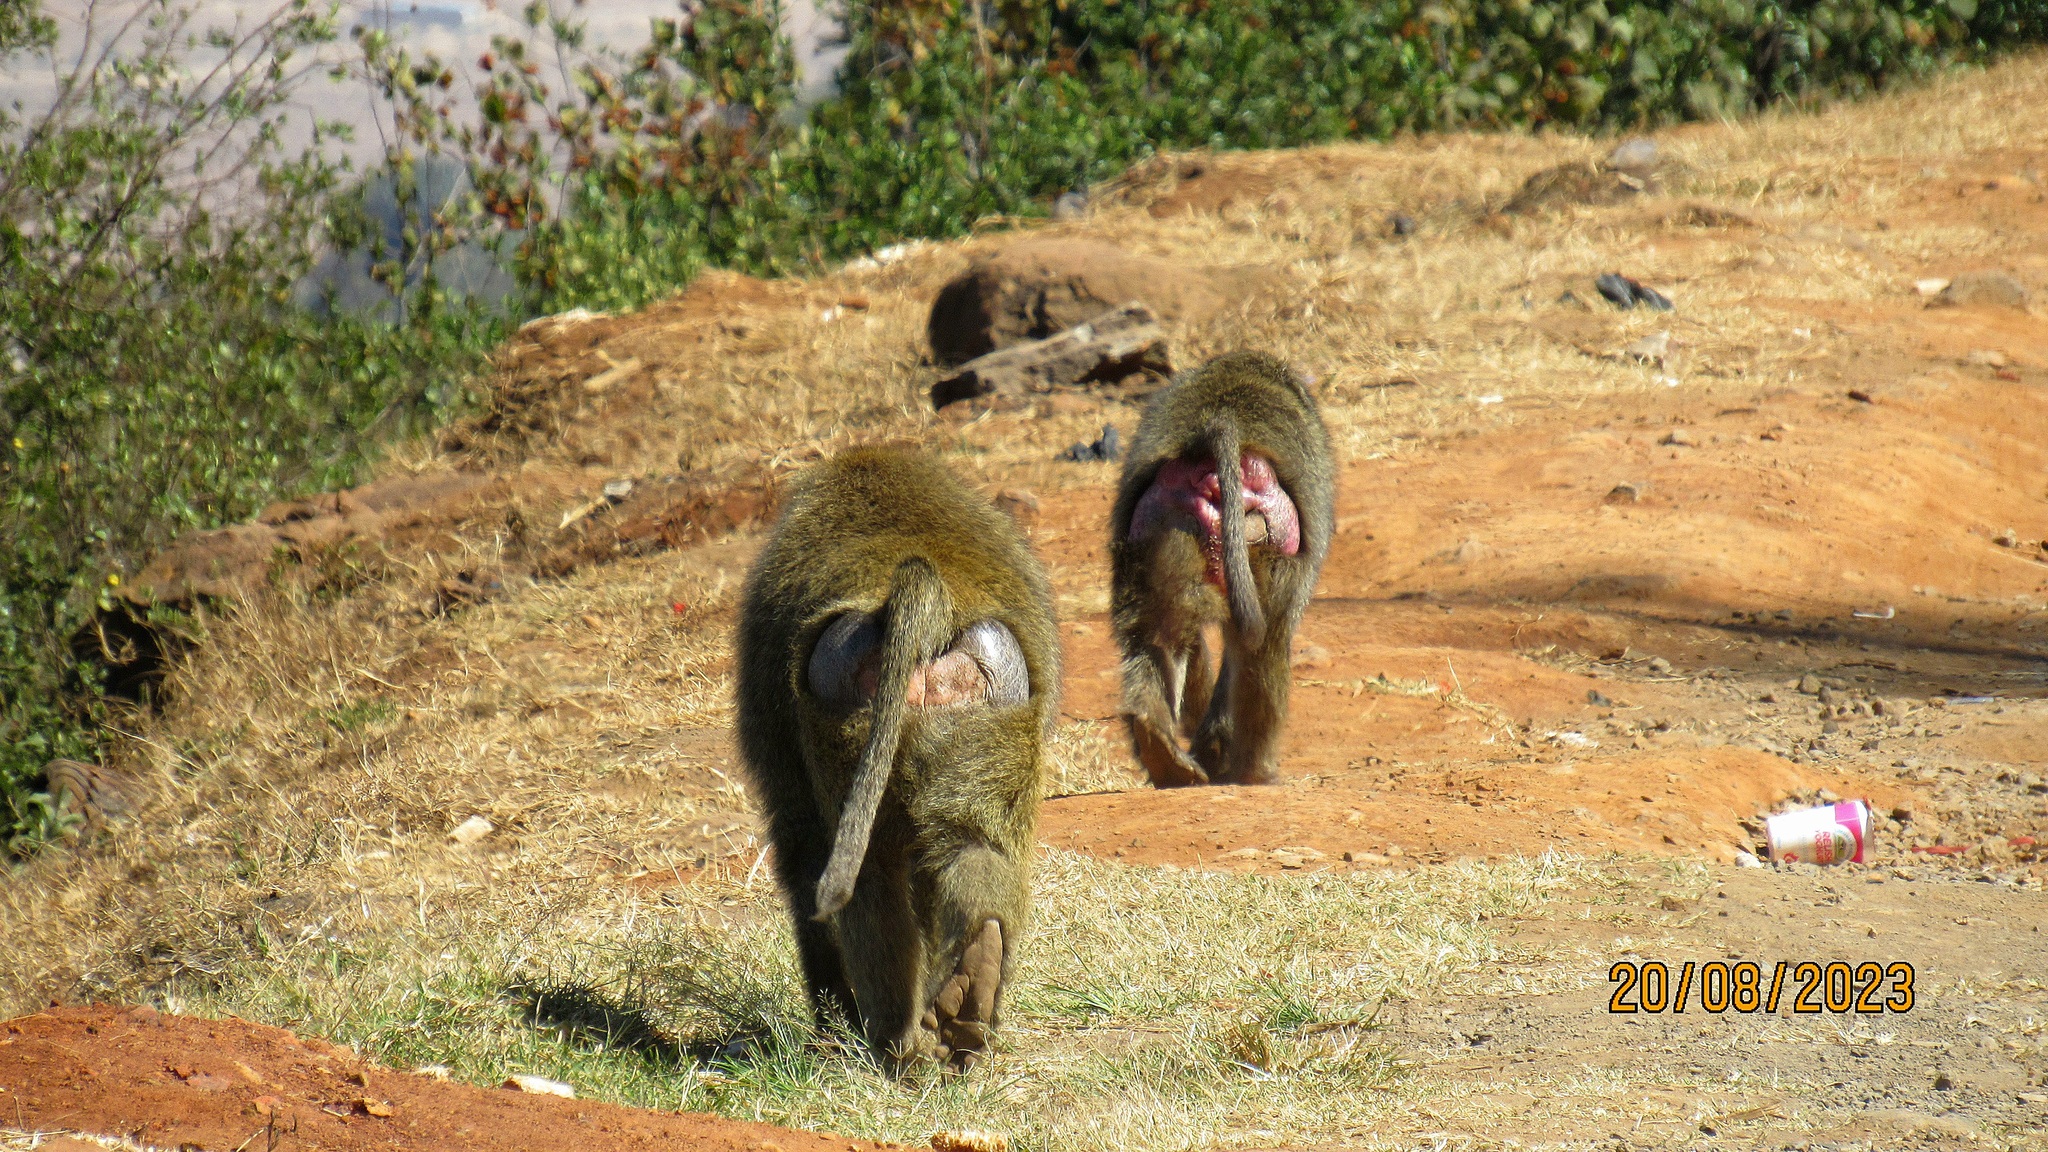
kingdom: Animalia
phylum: Chordata
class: Mammalia
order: Primates
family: Cercopithecidae
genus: Papio
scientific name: Papio anubis
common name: Olive baboon
